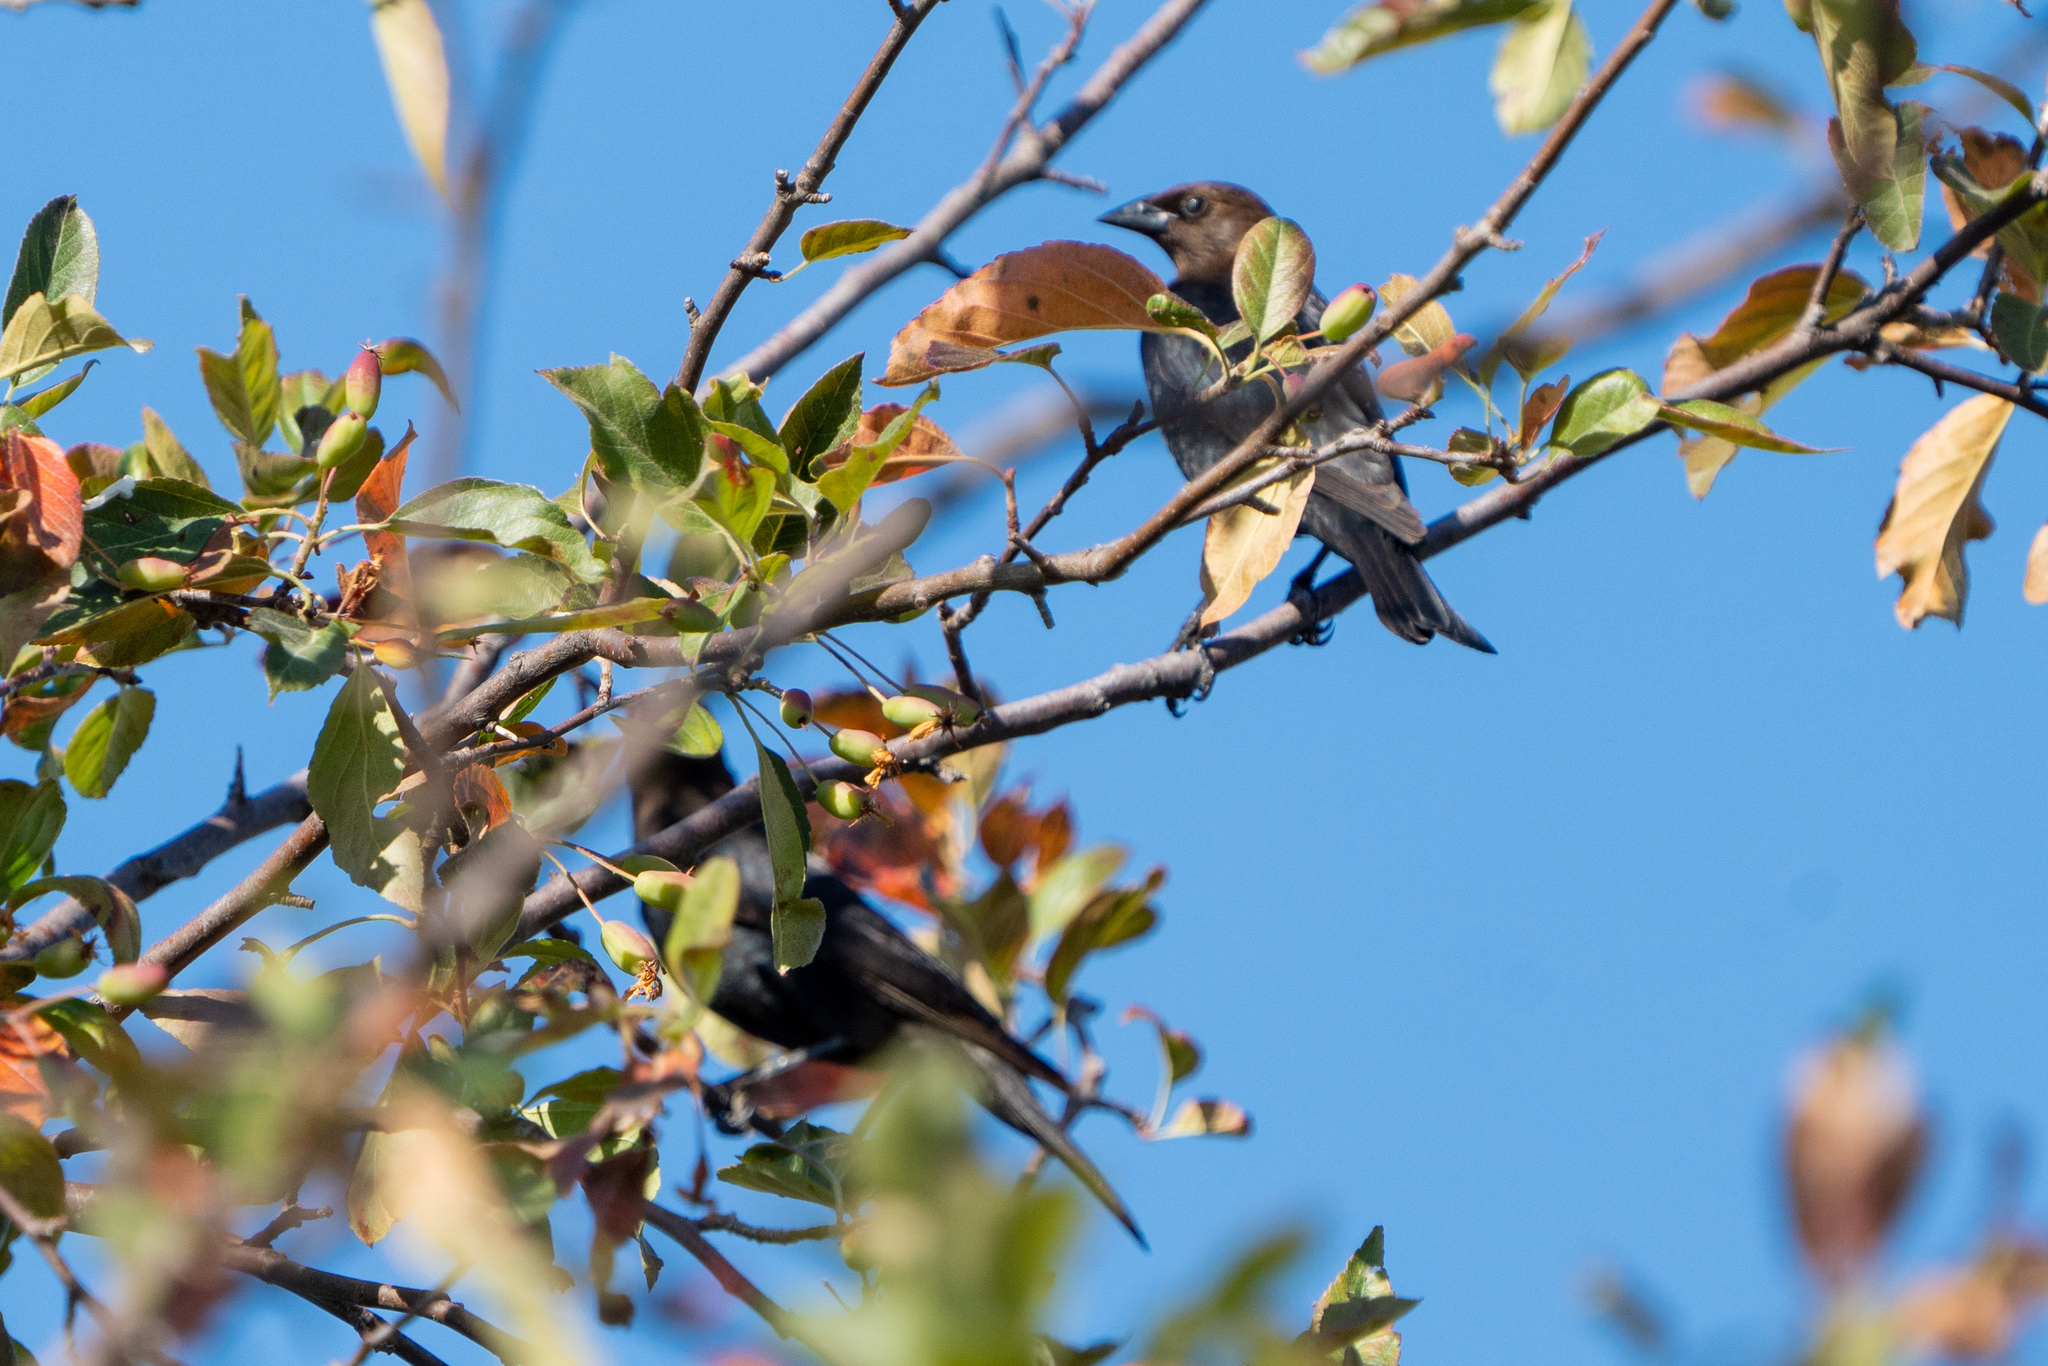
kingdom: Animalia
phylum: Chordata
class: Aves
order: Passeriformes
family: Icteridae
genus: Molothrus
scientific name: Molothrus ater
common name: Brown-headed cowbird
